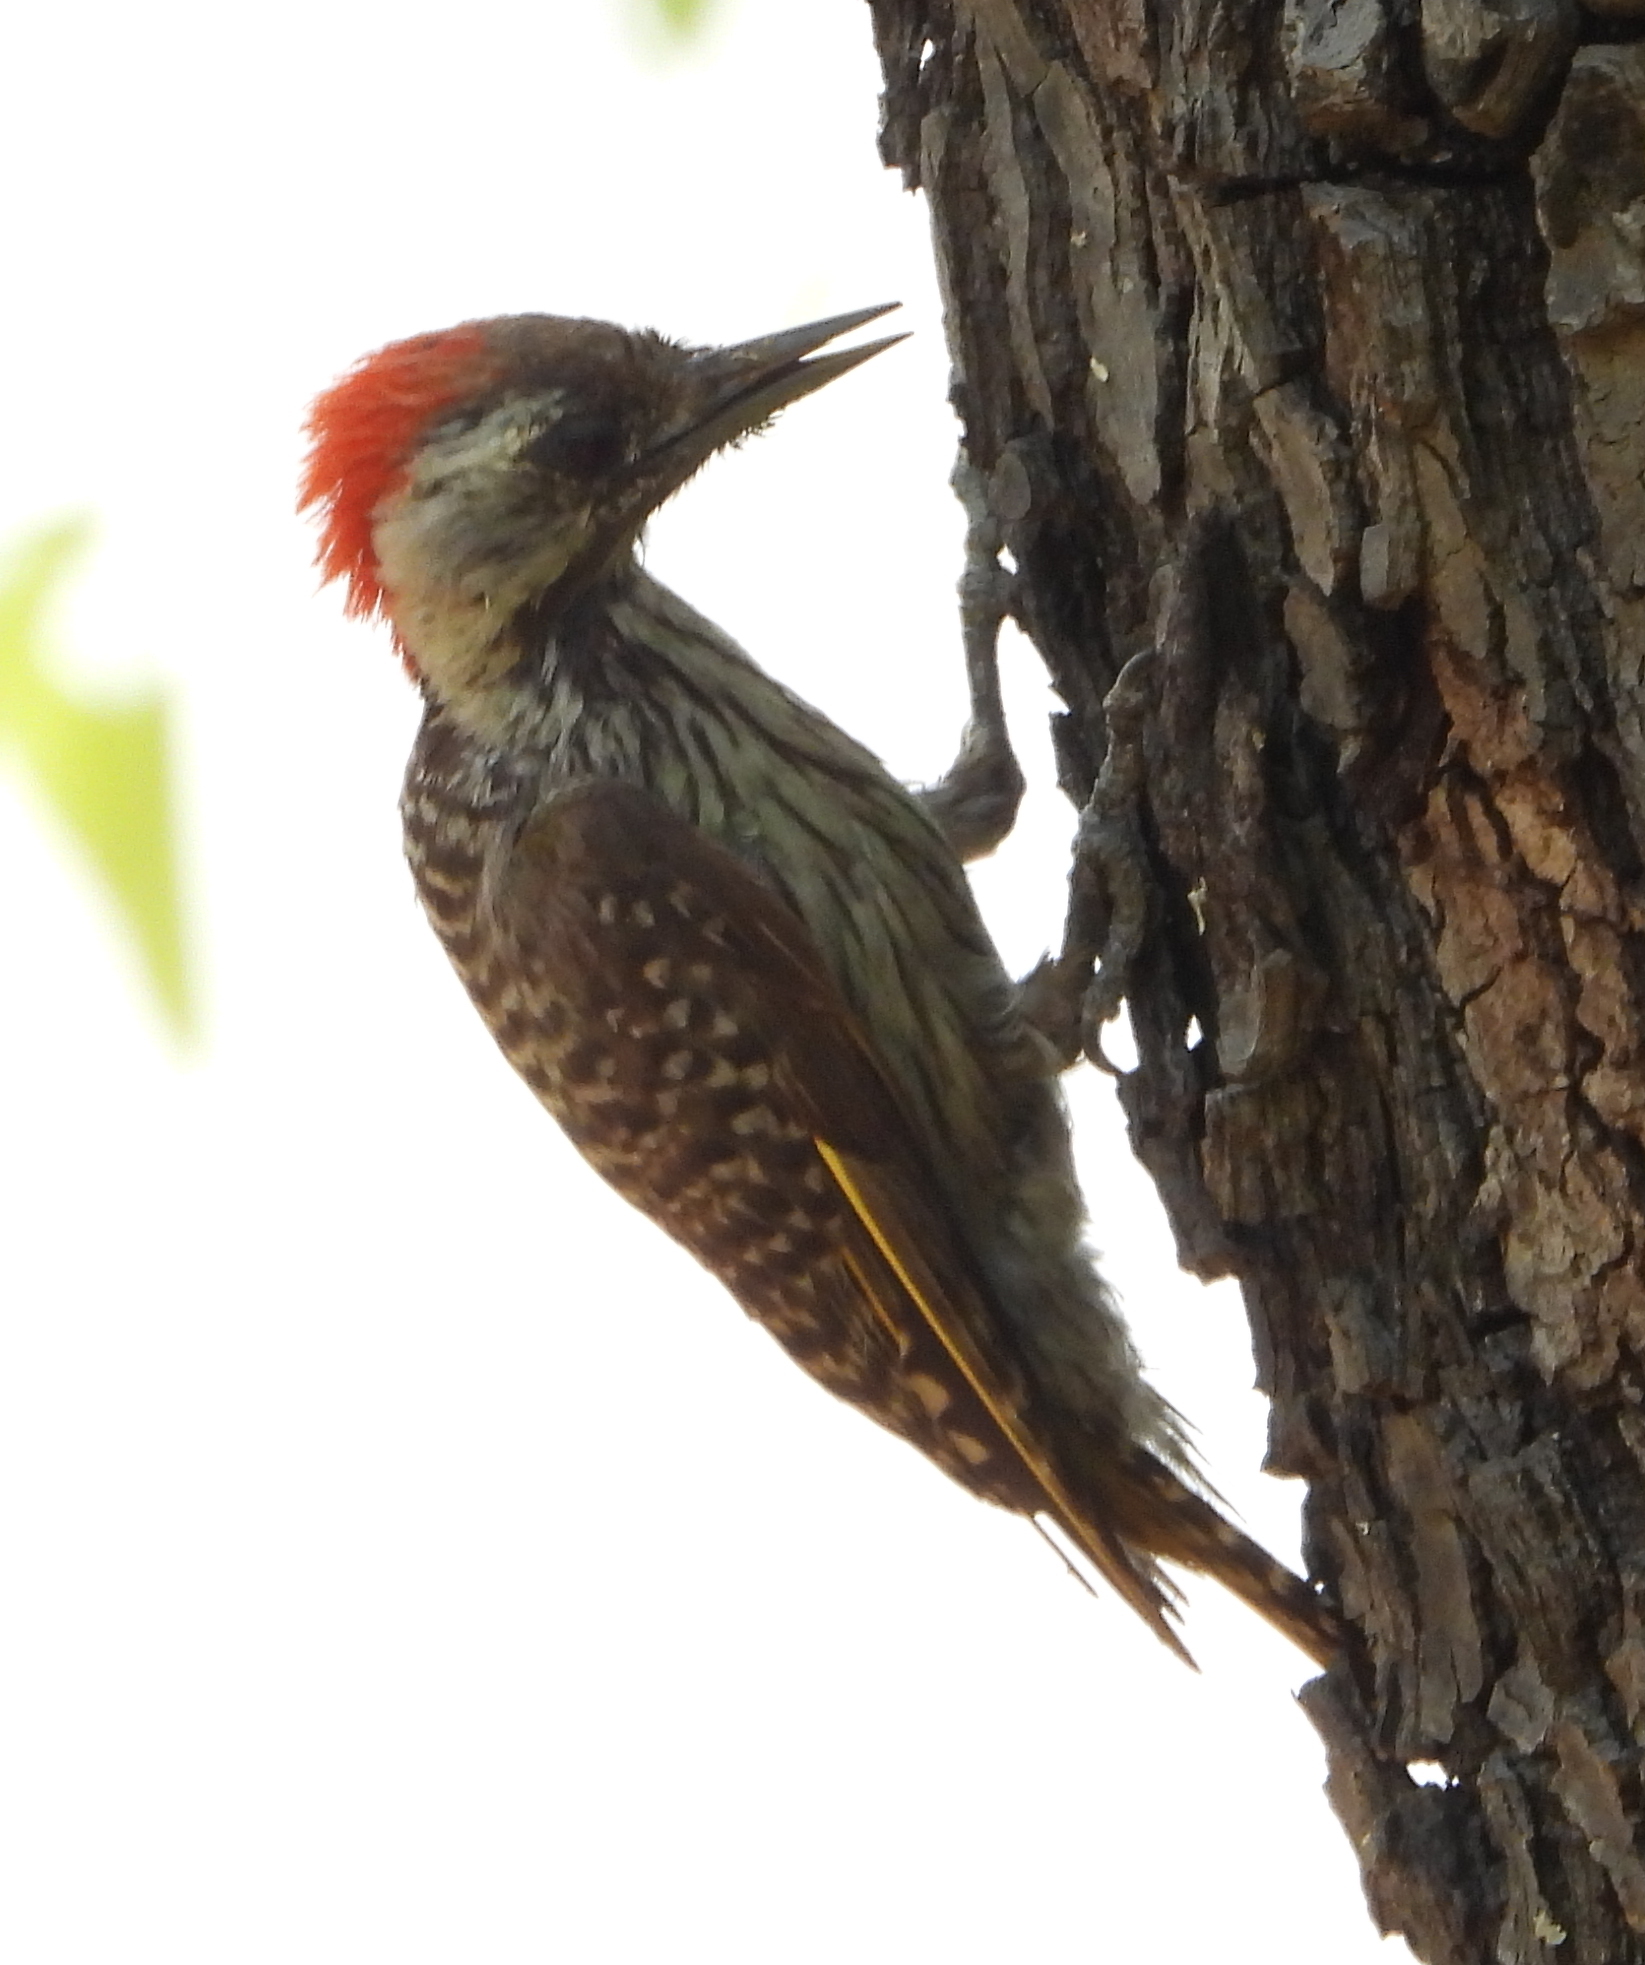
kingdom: Animalia
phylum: Chordata
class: Aves
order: Piciformes
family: Picidae
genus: Dendropicos
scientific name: Dendropicos fuscescens
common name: Cardinal woodpecker
